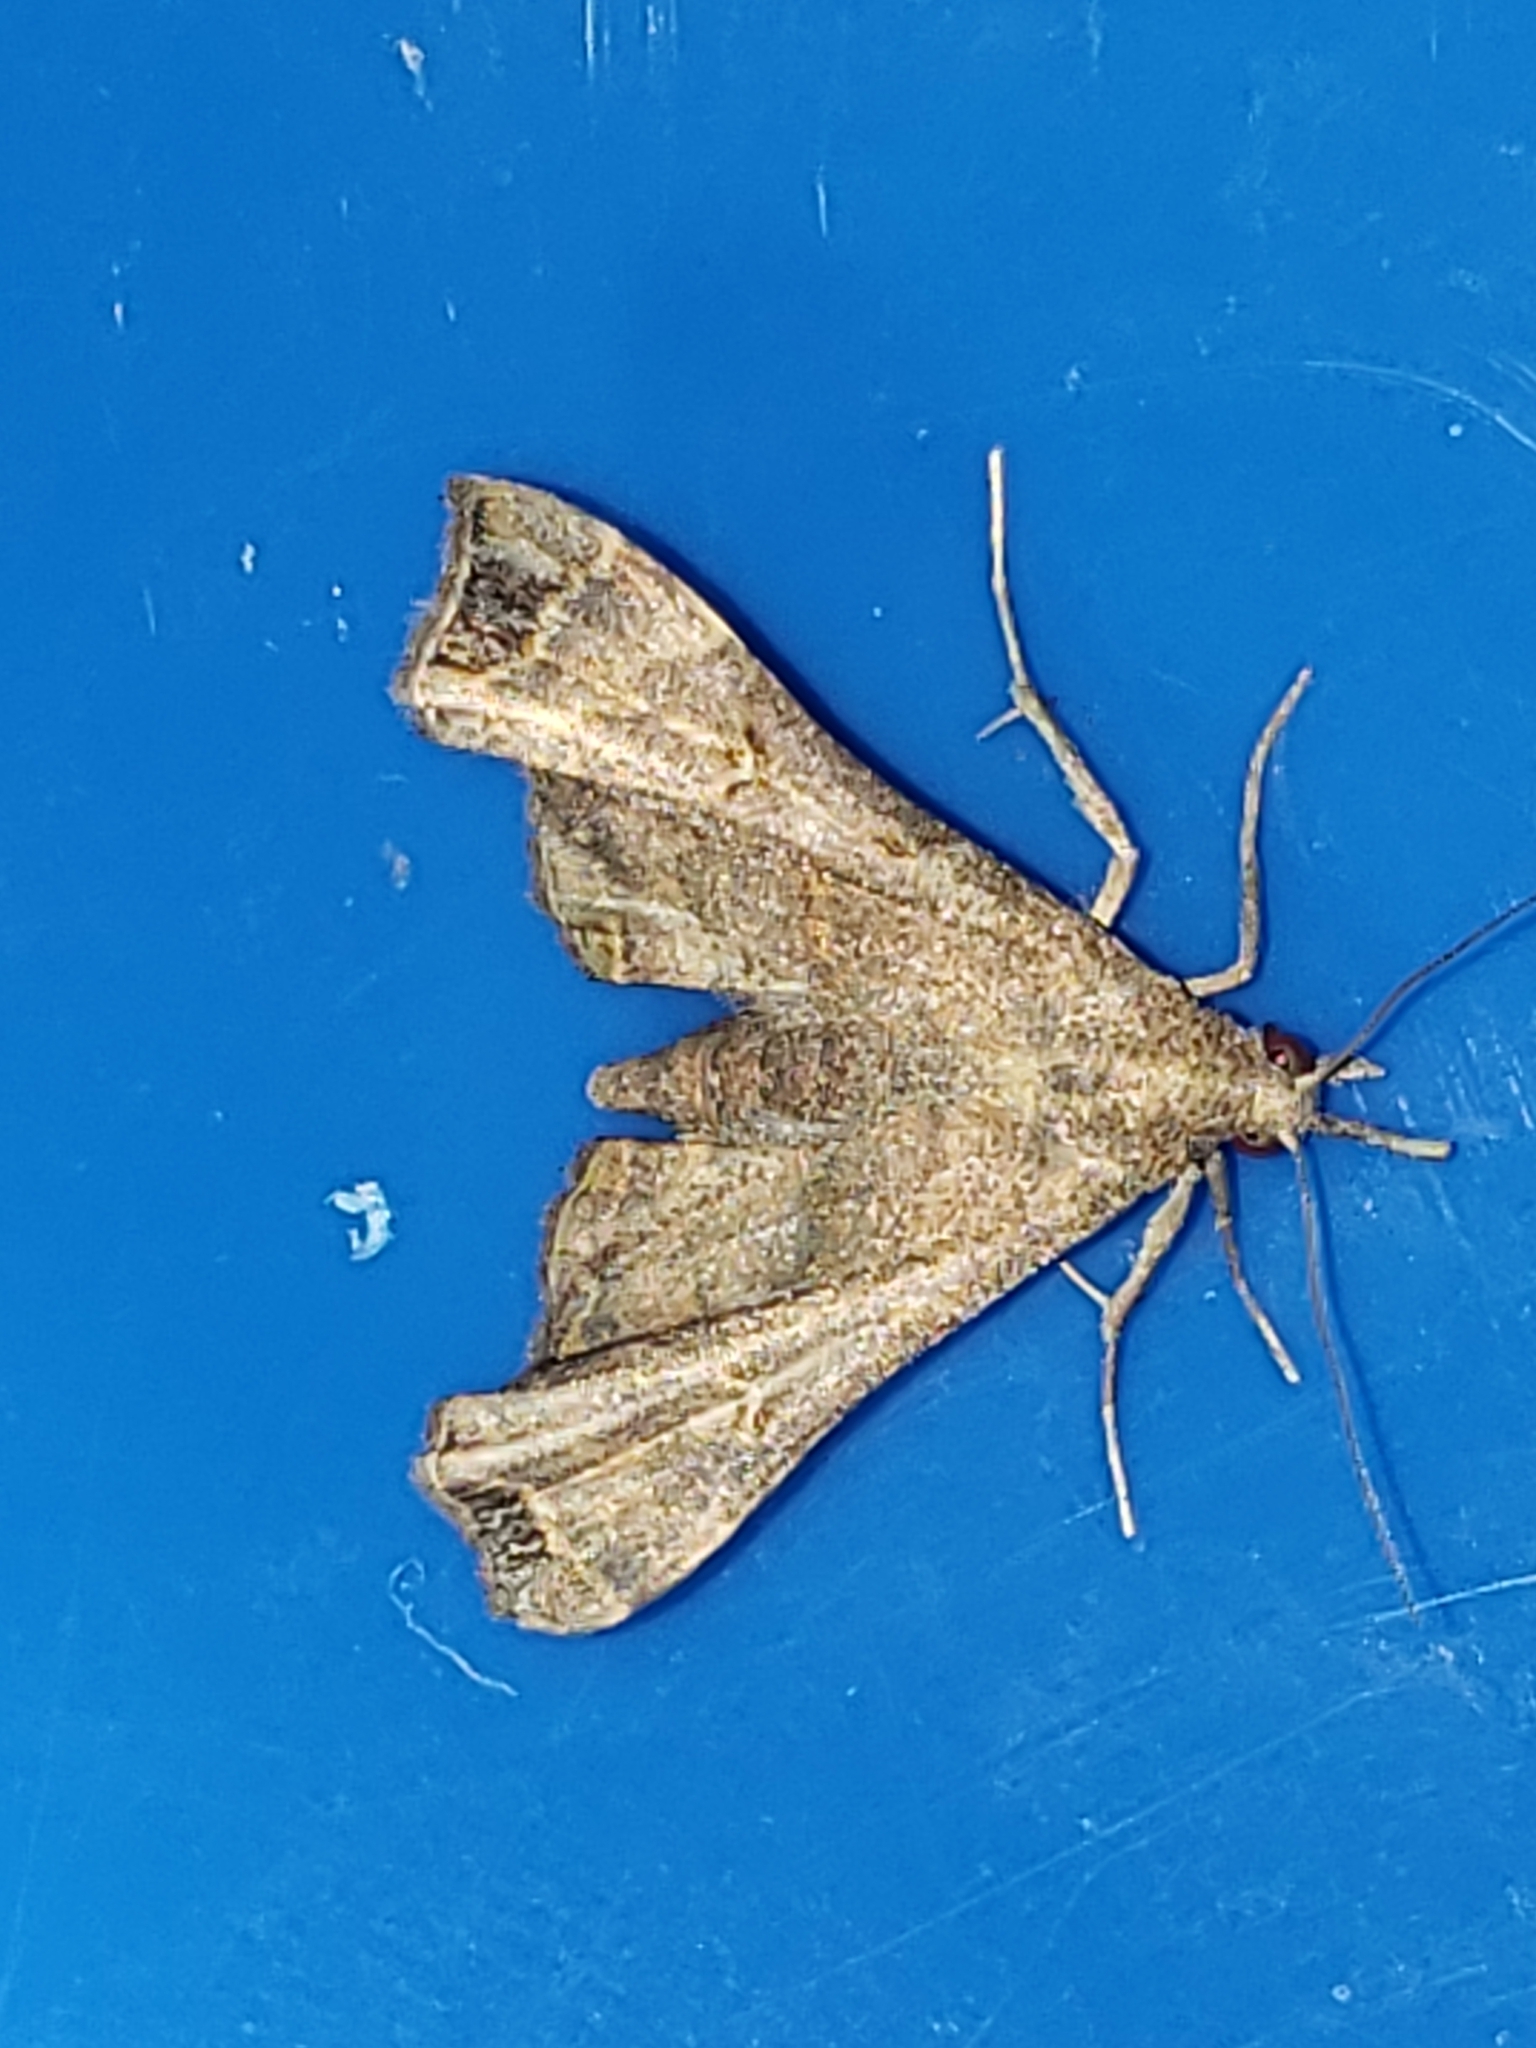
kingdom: Animalia
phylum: Arthropoda
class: Insecta
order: Lepidoptera
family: Erebidae
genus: Palthis
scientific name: Palthis asopialis
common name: Faint-spotted palthis moth
